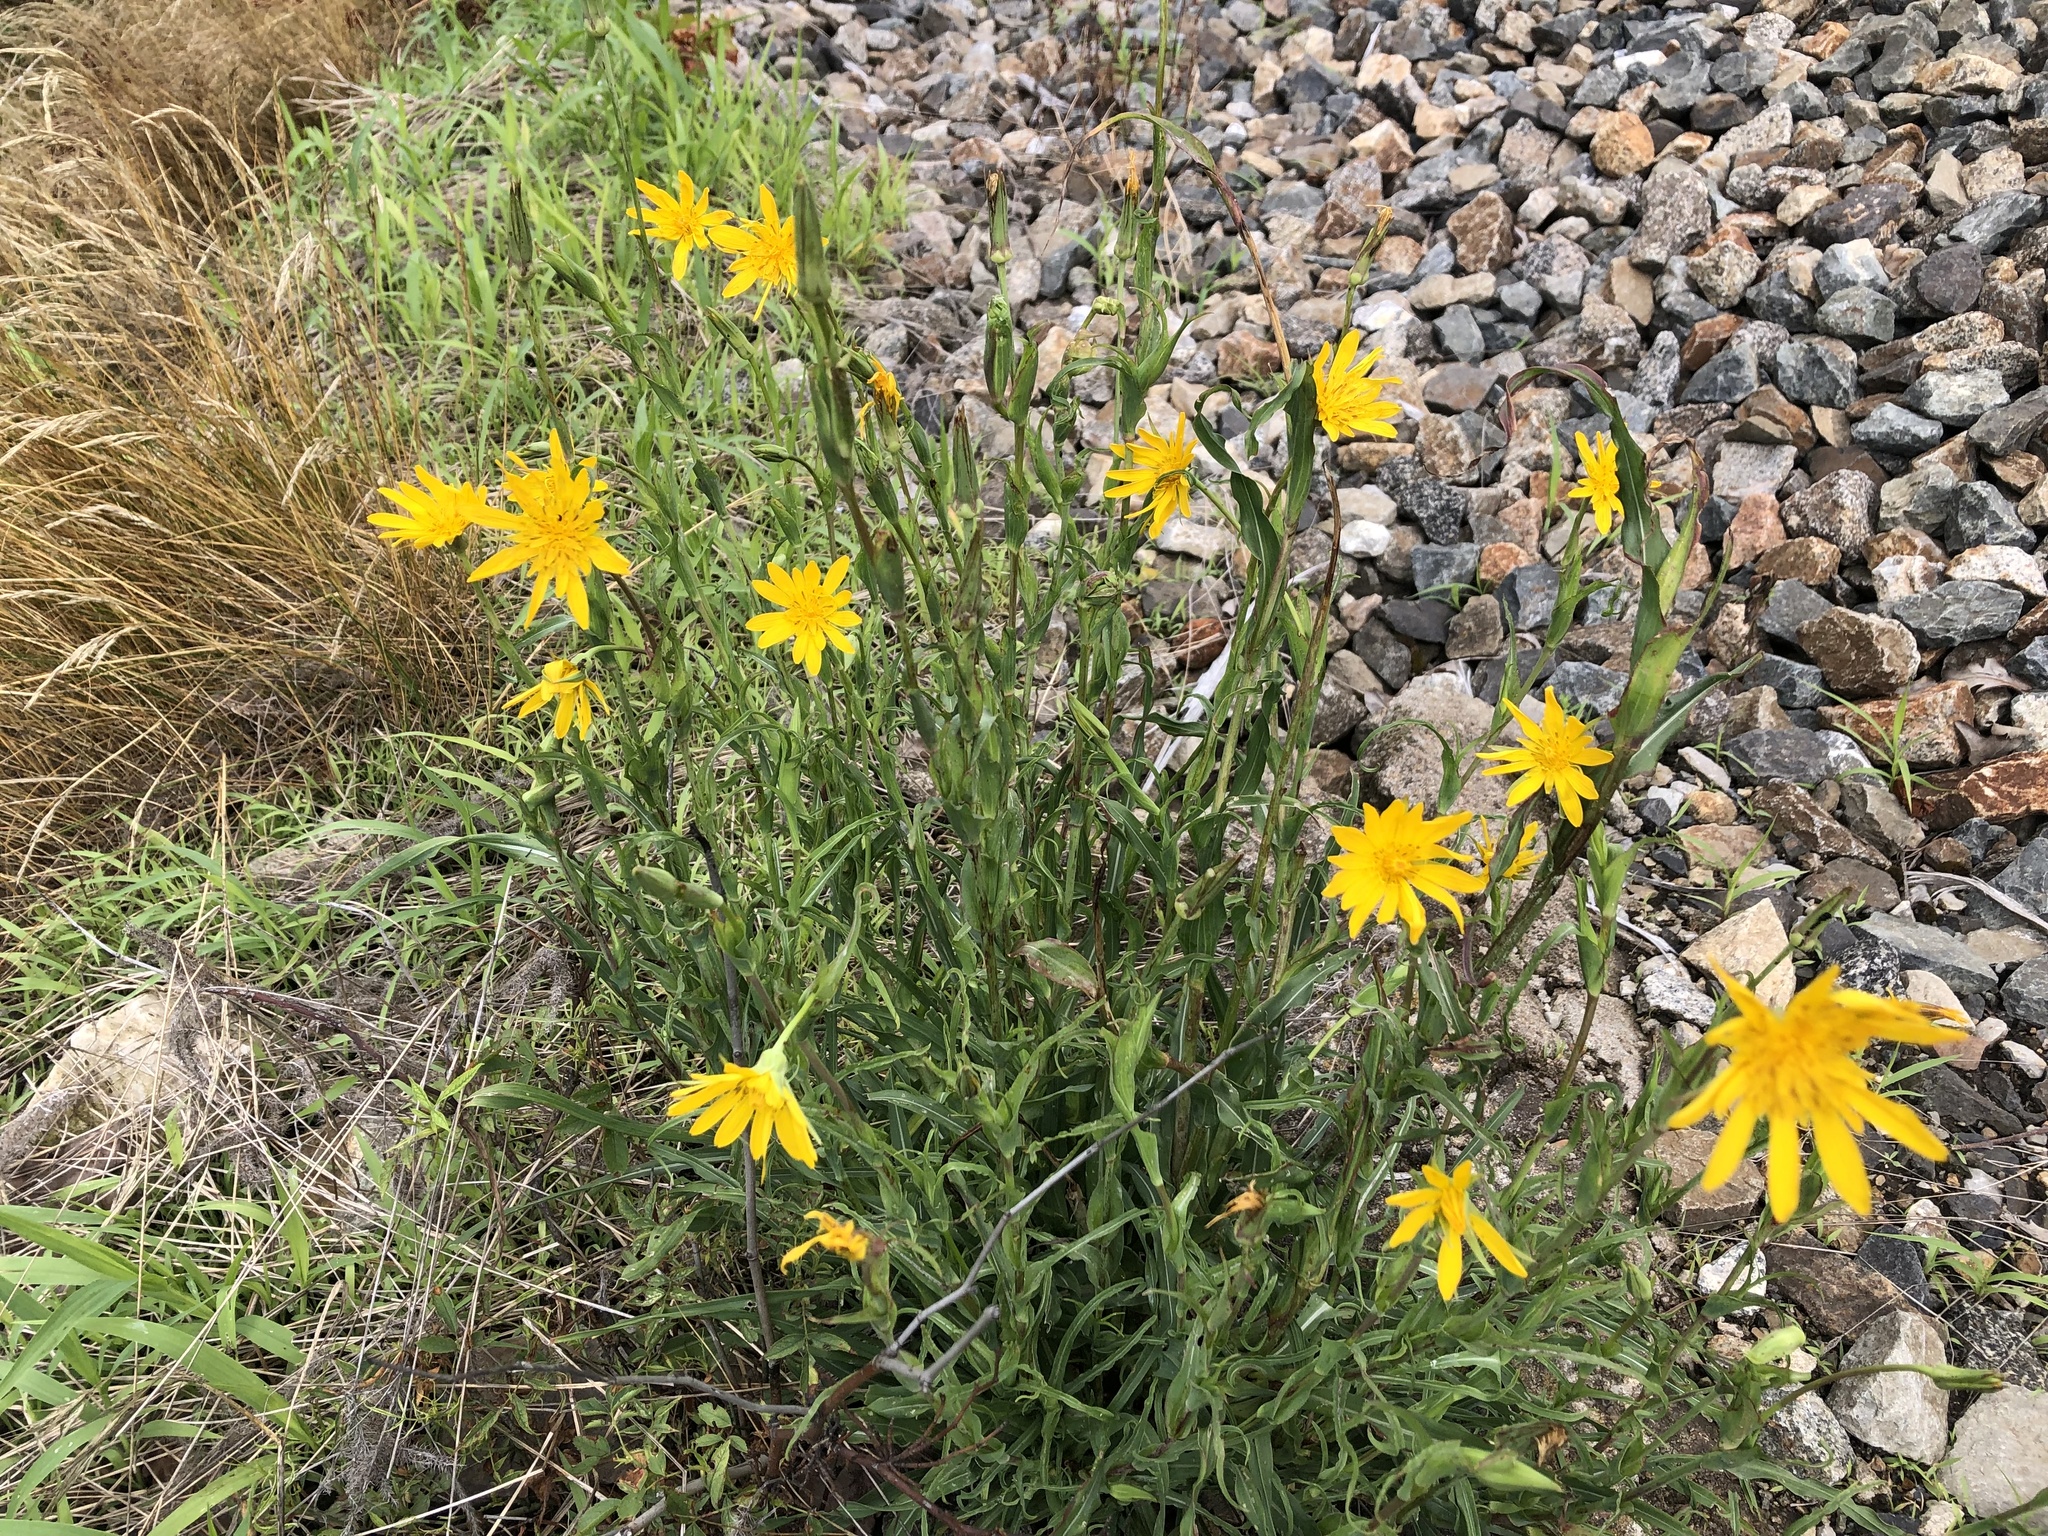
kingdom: Plantae
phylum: Tracheophyta
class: Magnoliopsida
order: Asterales
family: Asteraceae
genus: Tragopogon
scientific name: Tragopogon orientalis
